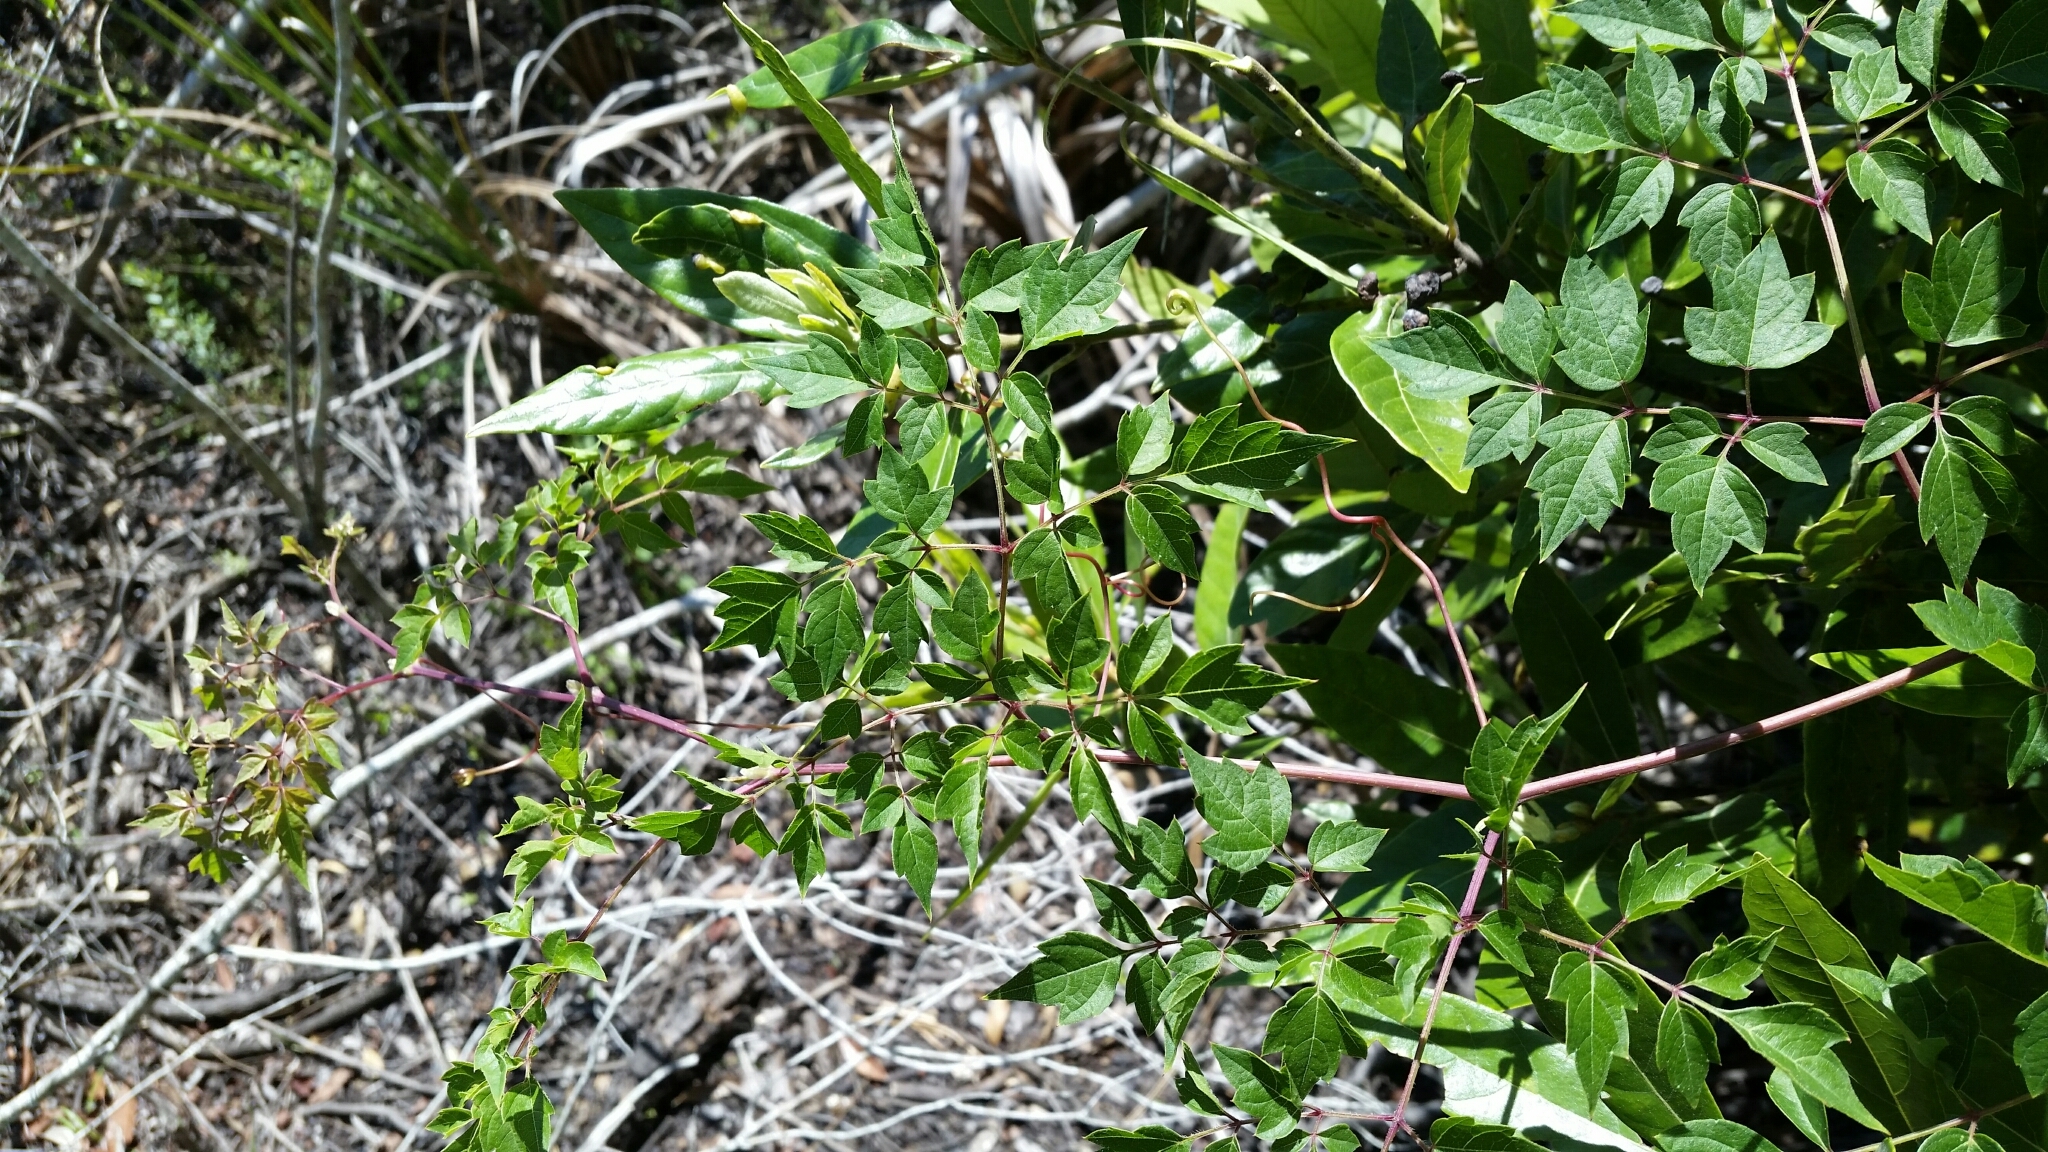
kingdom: Plantae
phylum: Tracheophyta
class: Magnoliopsida
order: Vitales
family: Vitaceae
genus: Nekemias
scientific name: Nekemias arborea
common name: Peppervine
